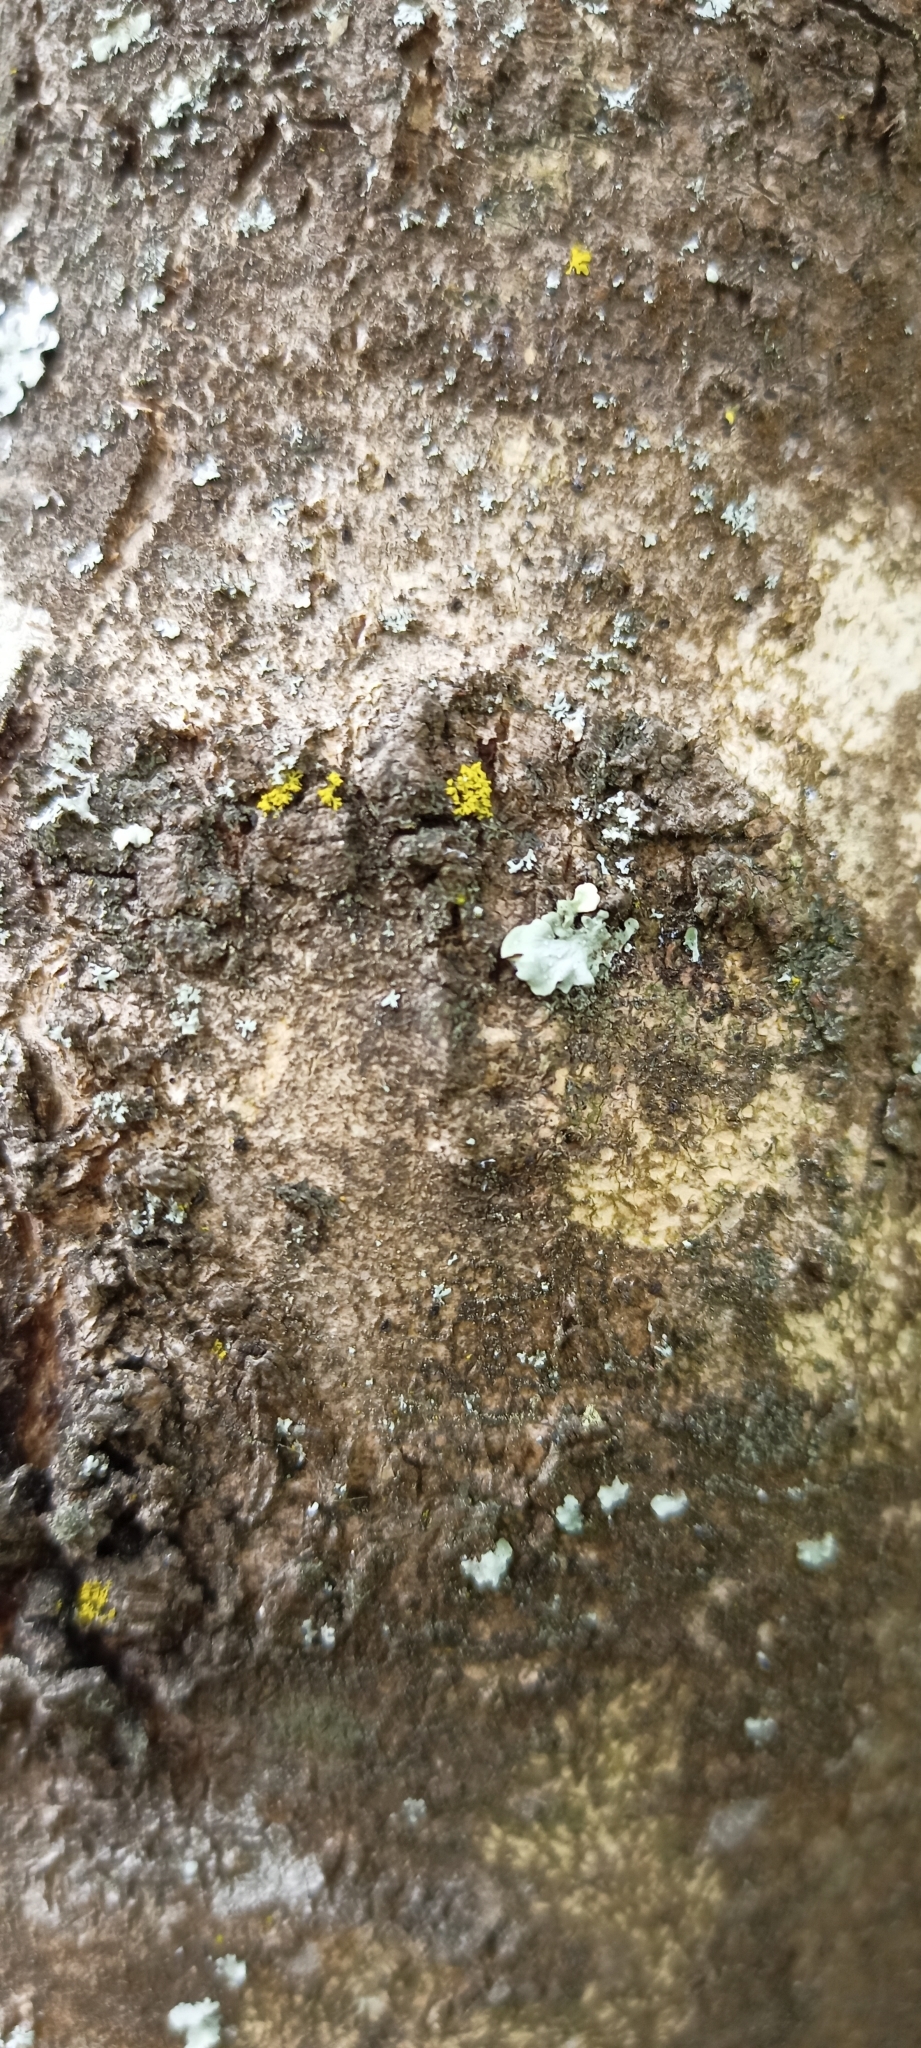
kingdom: Fungi
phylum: Ascomycota
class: Candelariomycetes
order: Candelariales
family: Candelariaceae
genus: Candelaria
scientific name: Candelaria concolor
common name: Candleflame lichen
